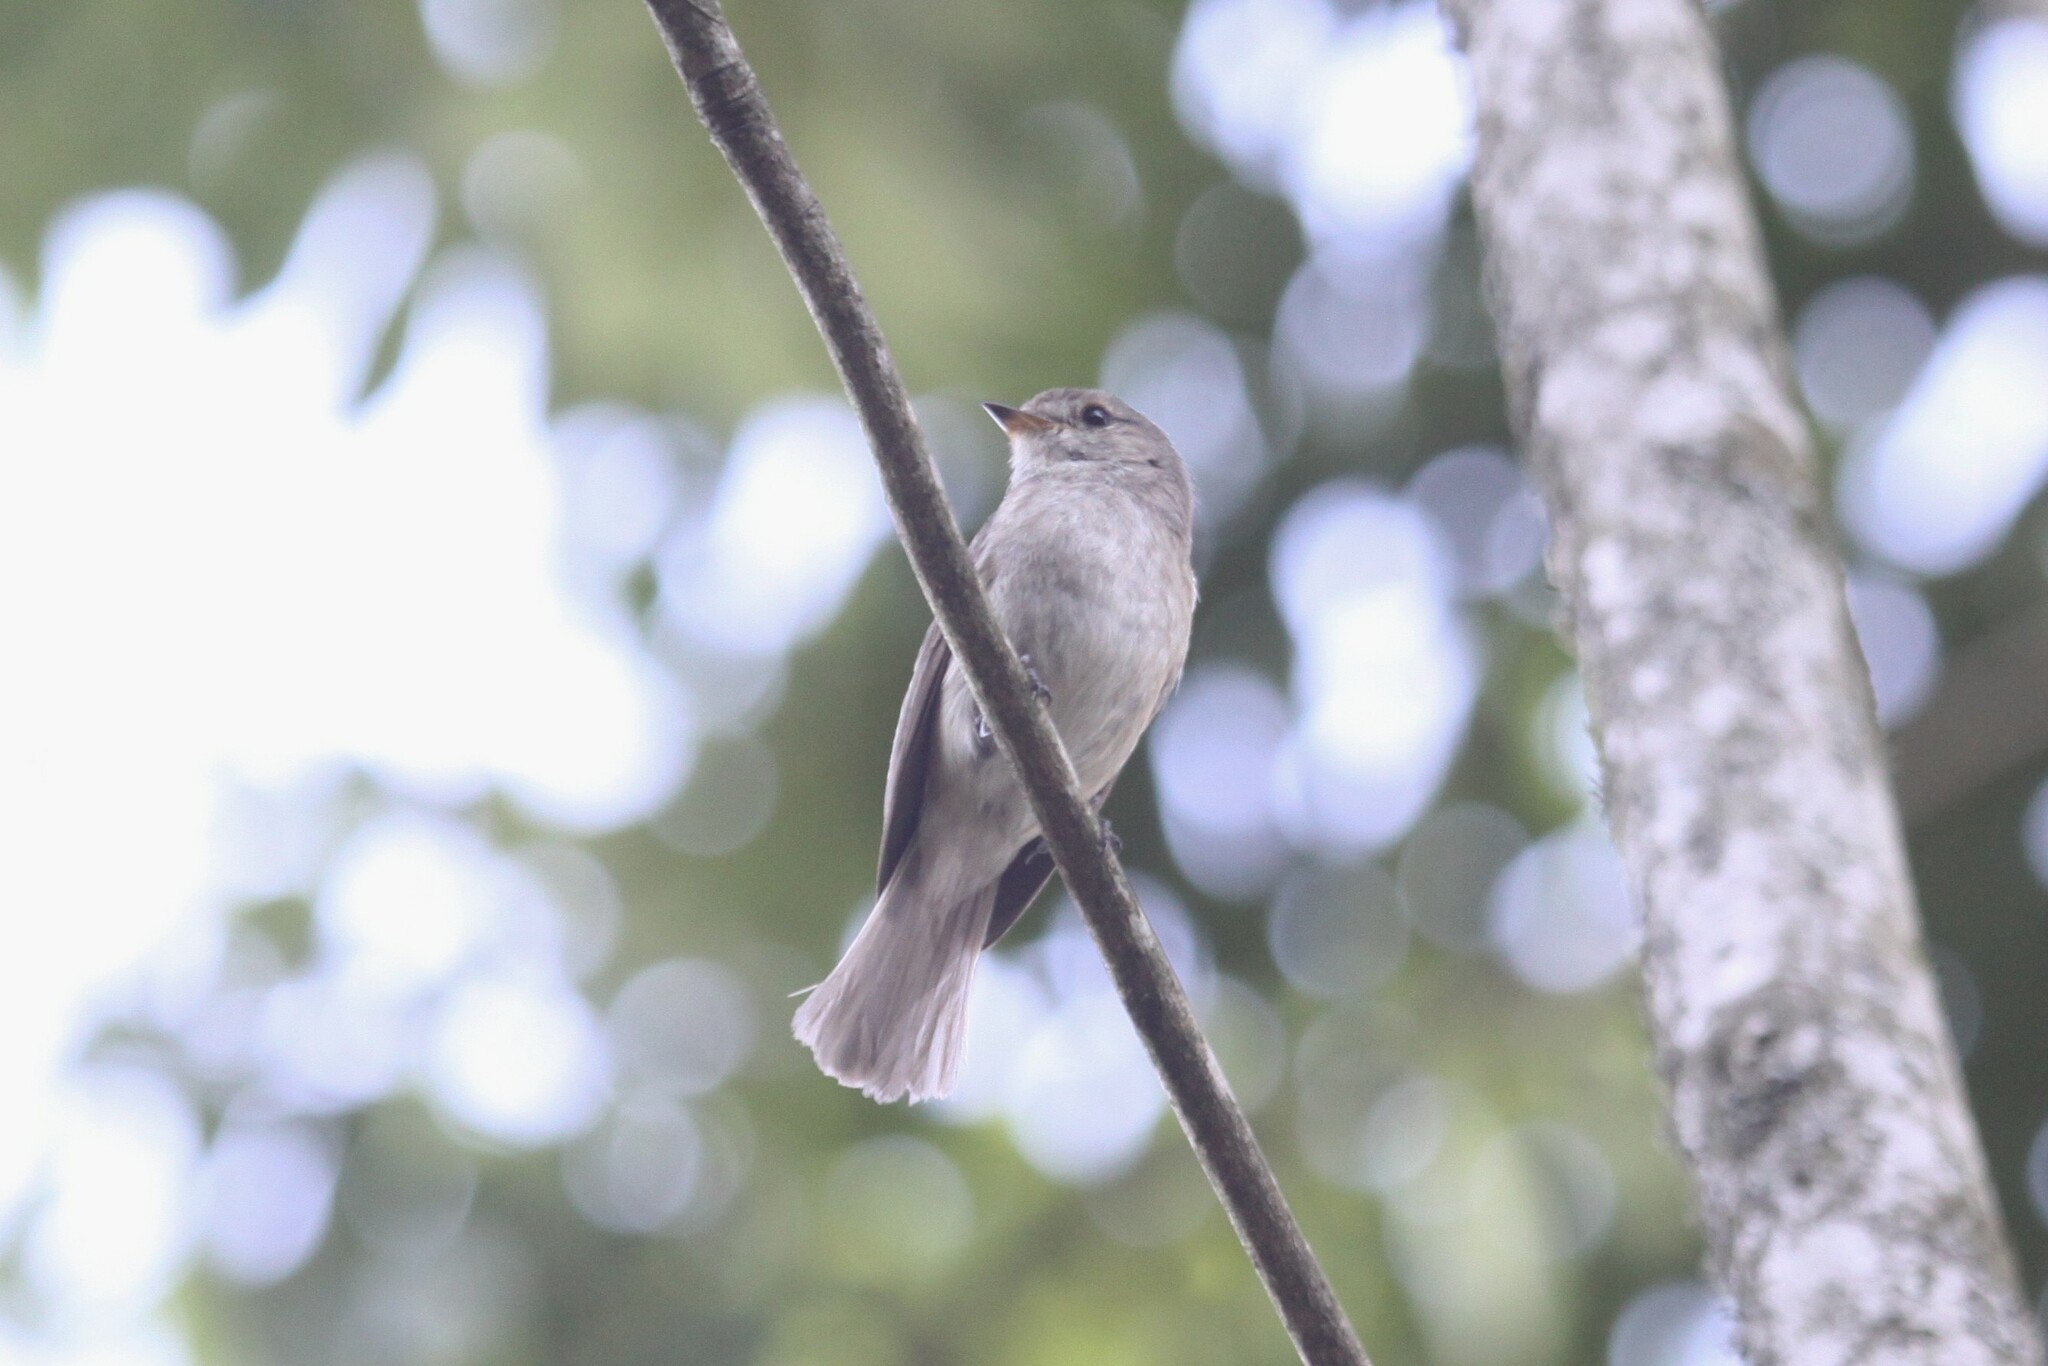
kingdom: Animalia
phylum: Chordata
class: Aves
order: Passeriformes
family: Muscicapidae
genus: Muscicapa
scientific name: Muscicapa adusta
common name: African dusky flycatcher
